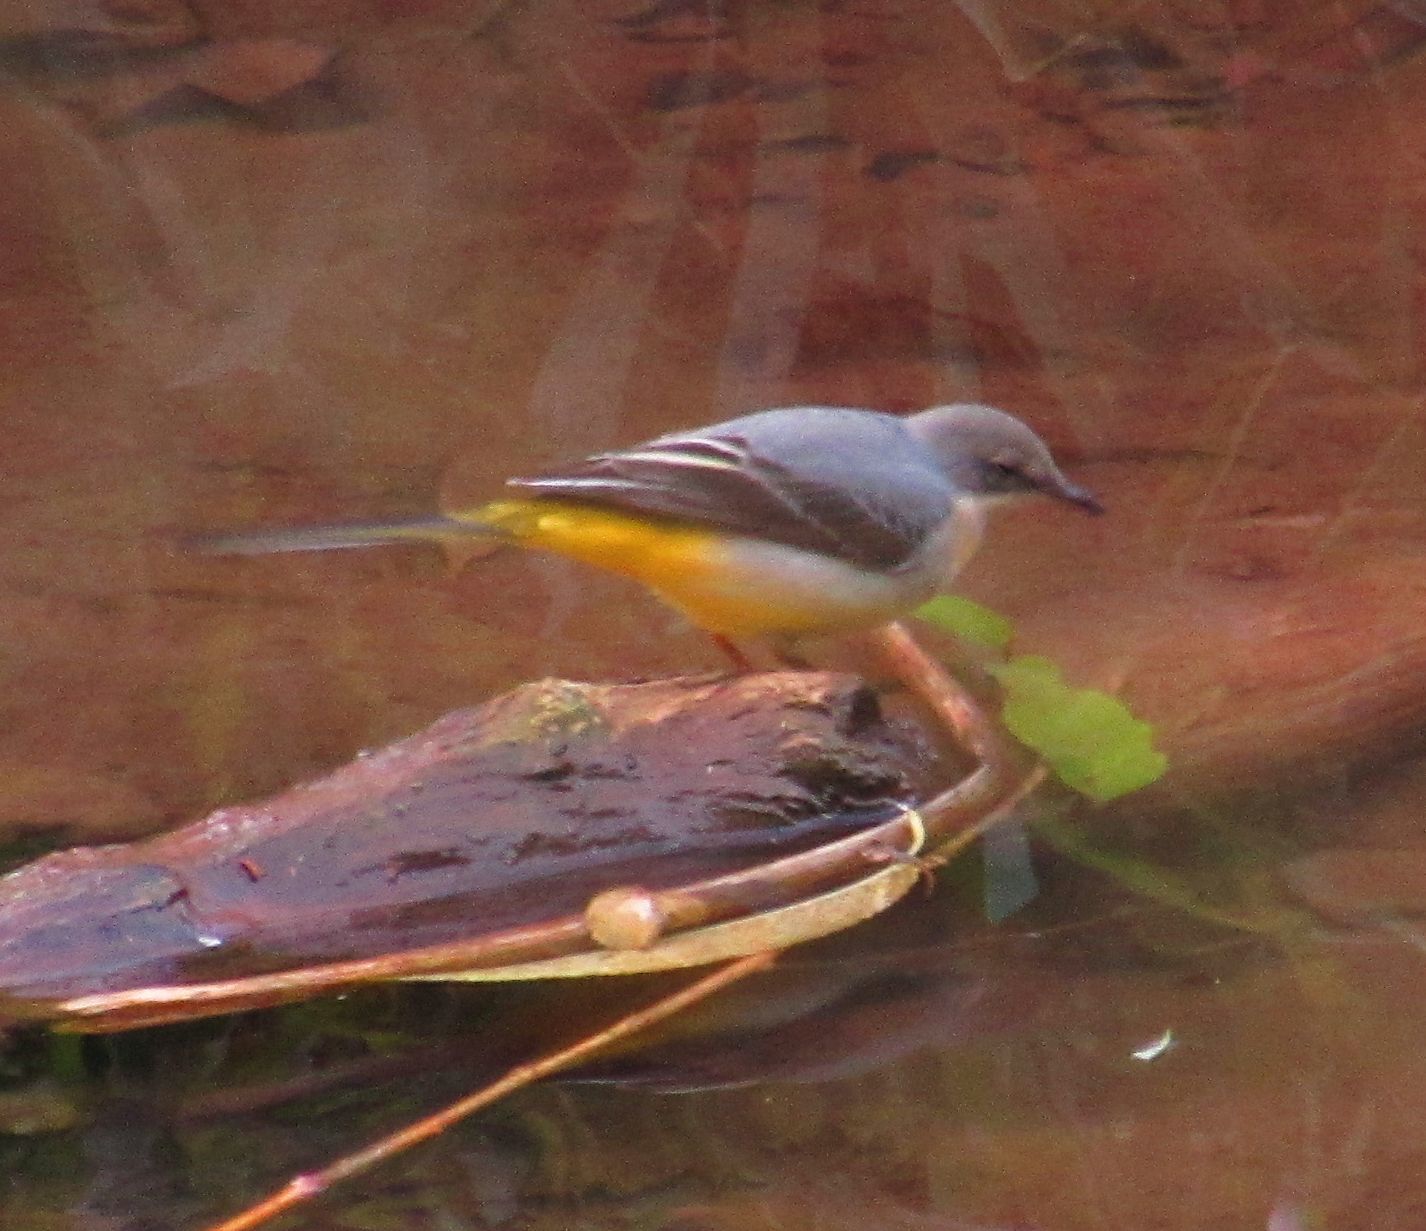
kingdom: Animalia
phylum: Chordata
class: Aves
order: Passeriformes
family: Motacillidae
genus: Motacilla
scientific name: Motacilla cinerea
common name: Grey wagtail
